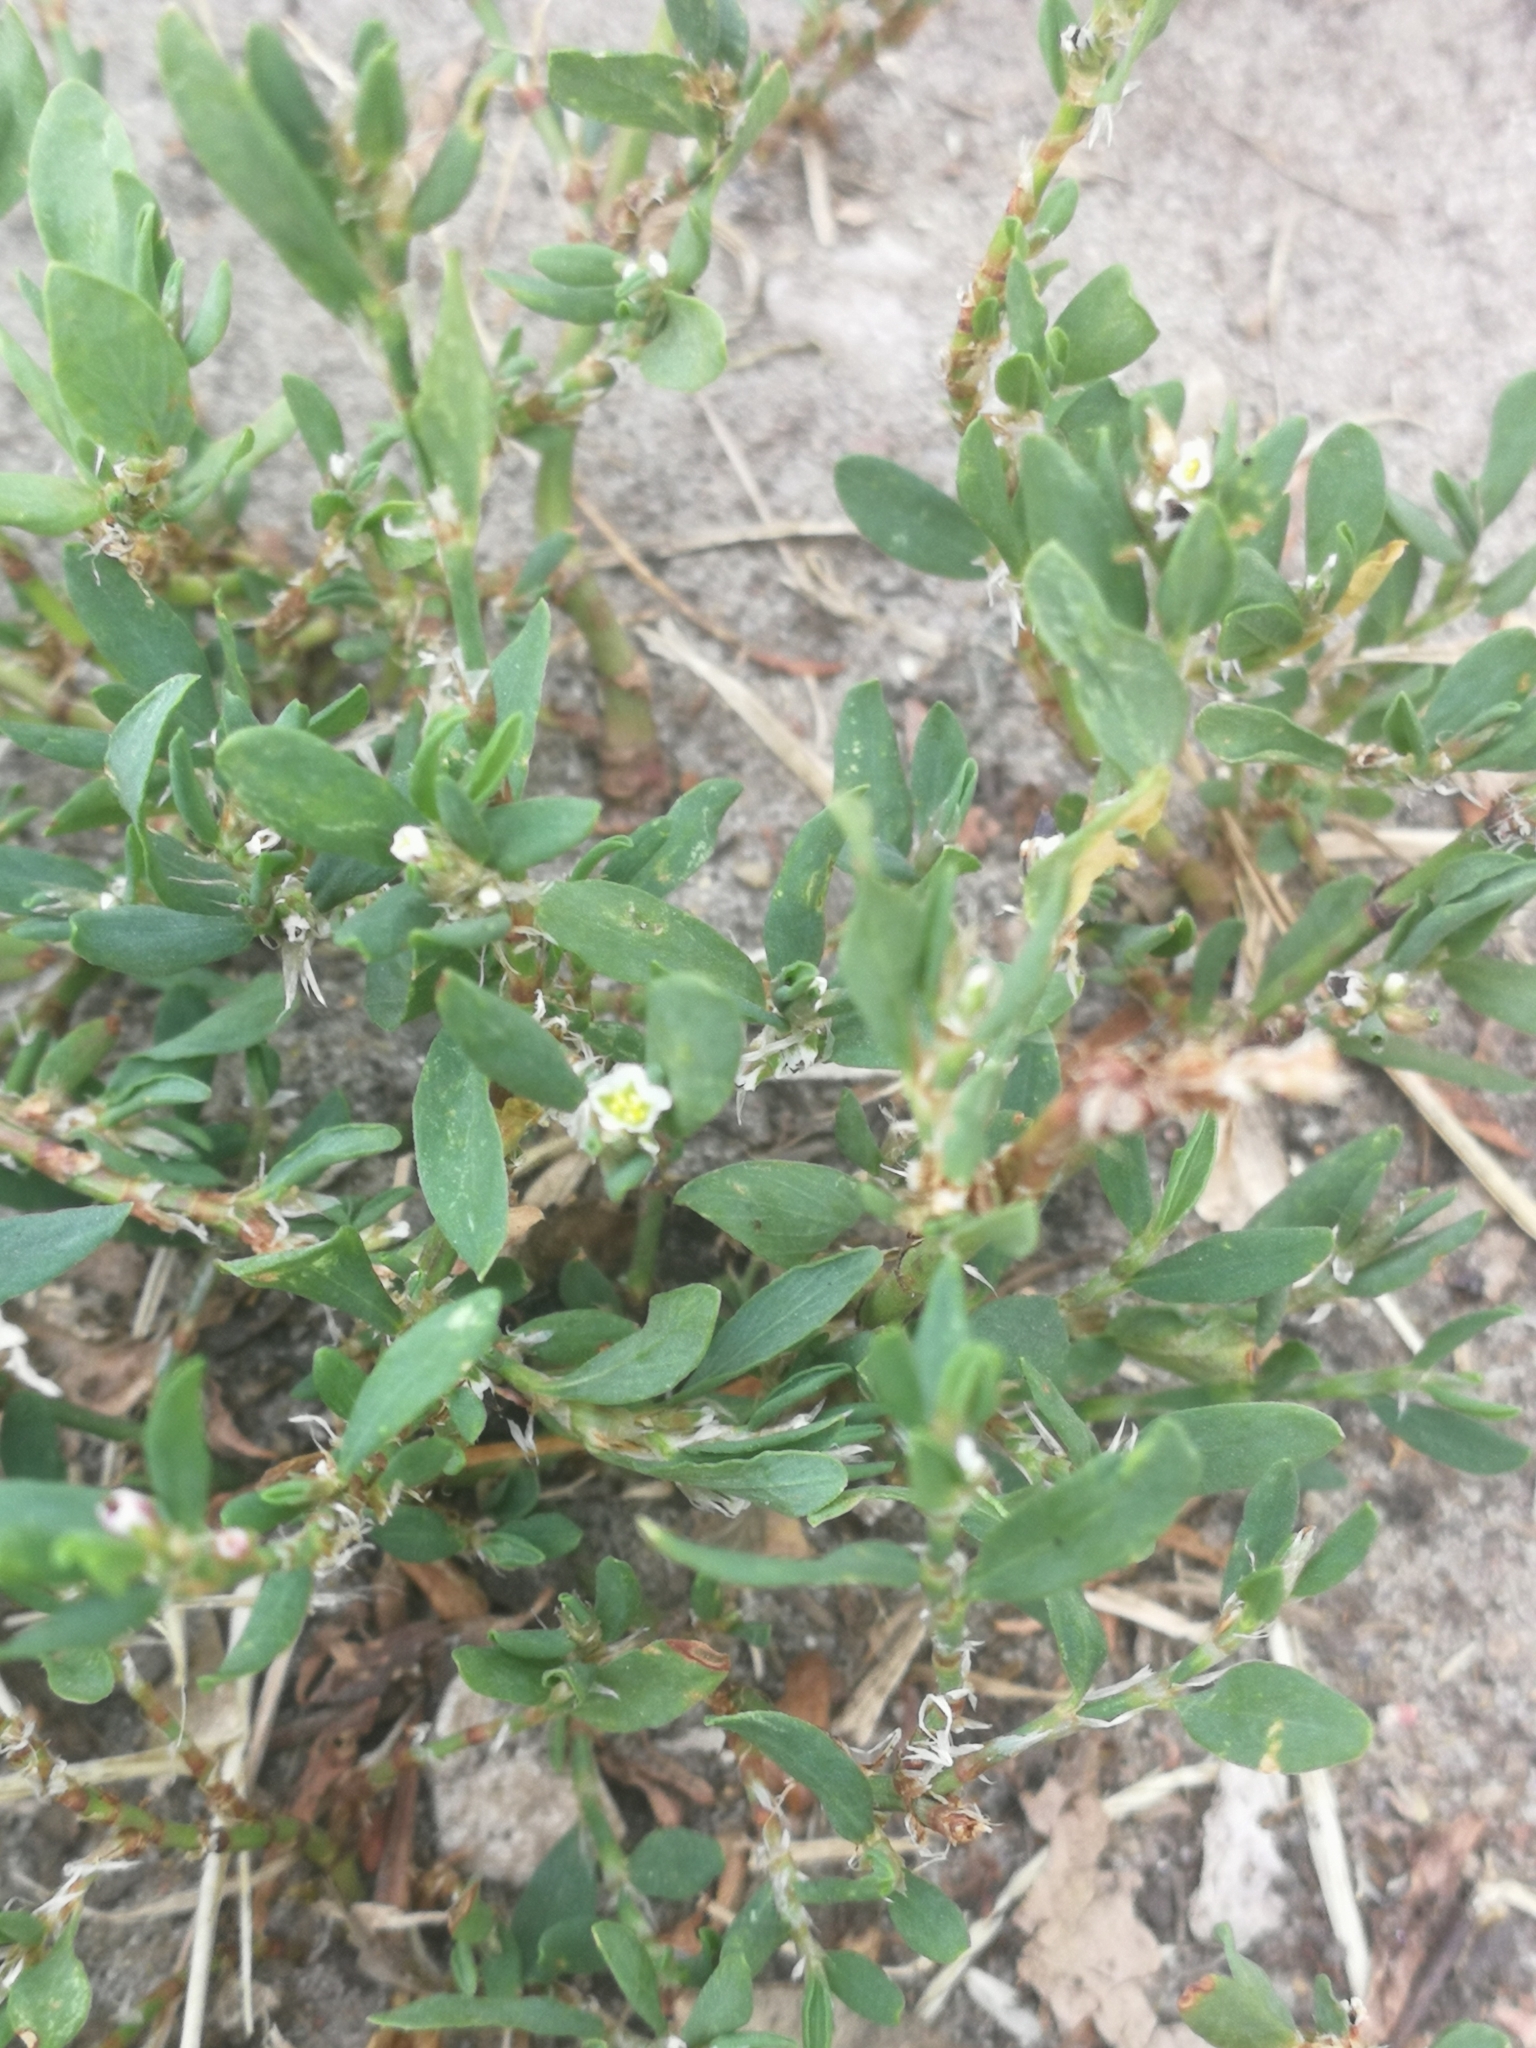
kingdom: Plantae
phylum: Tracheophyta
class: Magnoliopsida
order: Caryophyllales
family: Polygonaceae
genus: Polygonum
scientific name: Polygonum aviculare
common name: Prostrate knotweed
